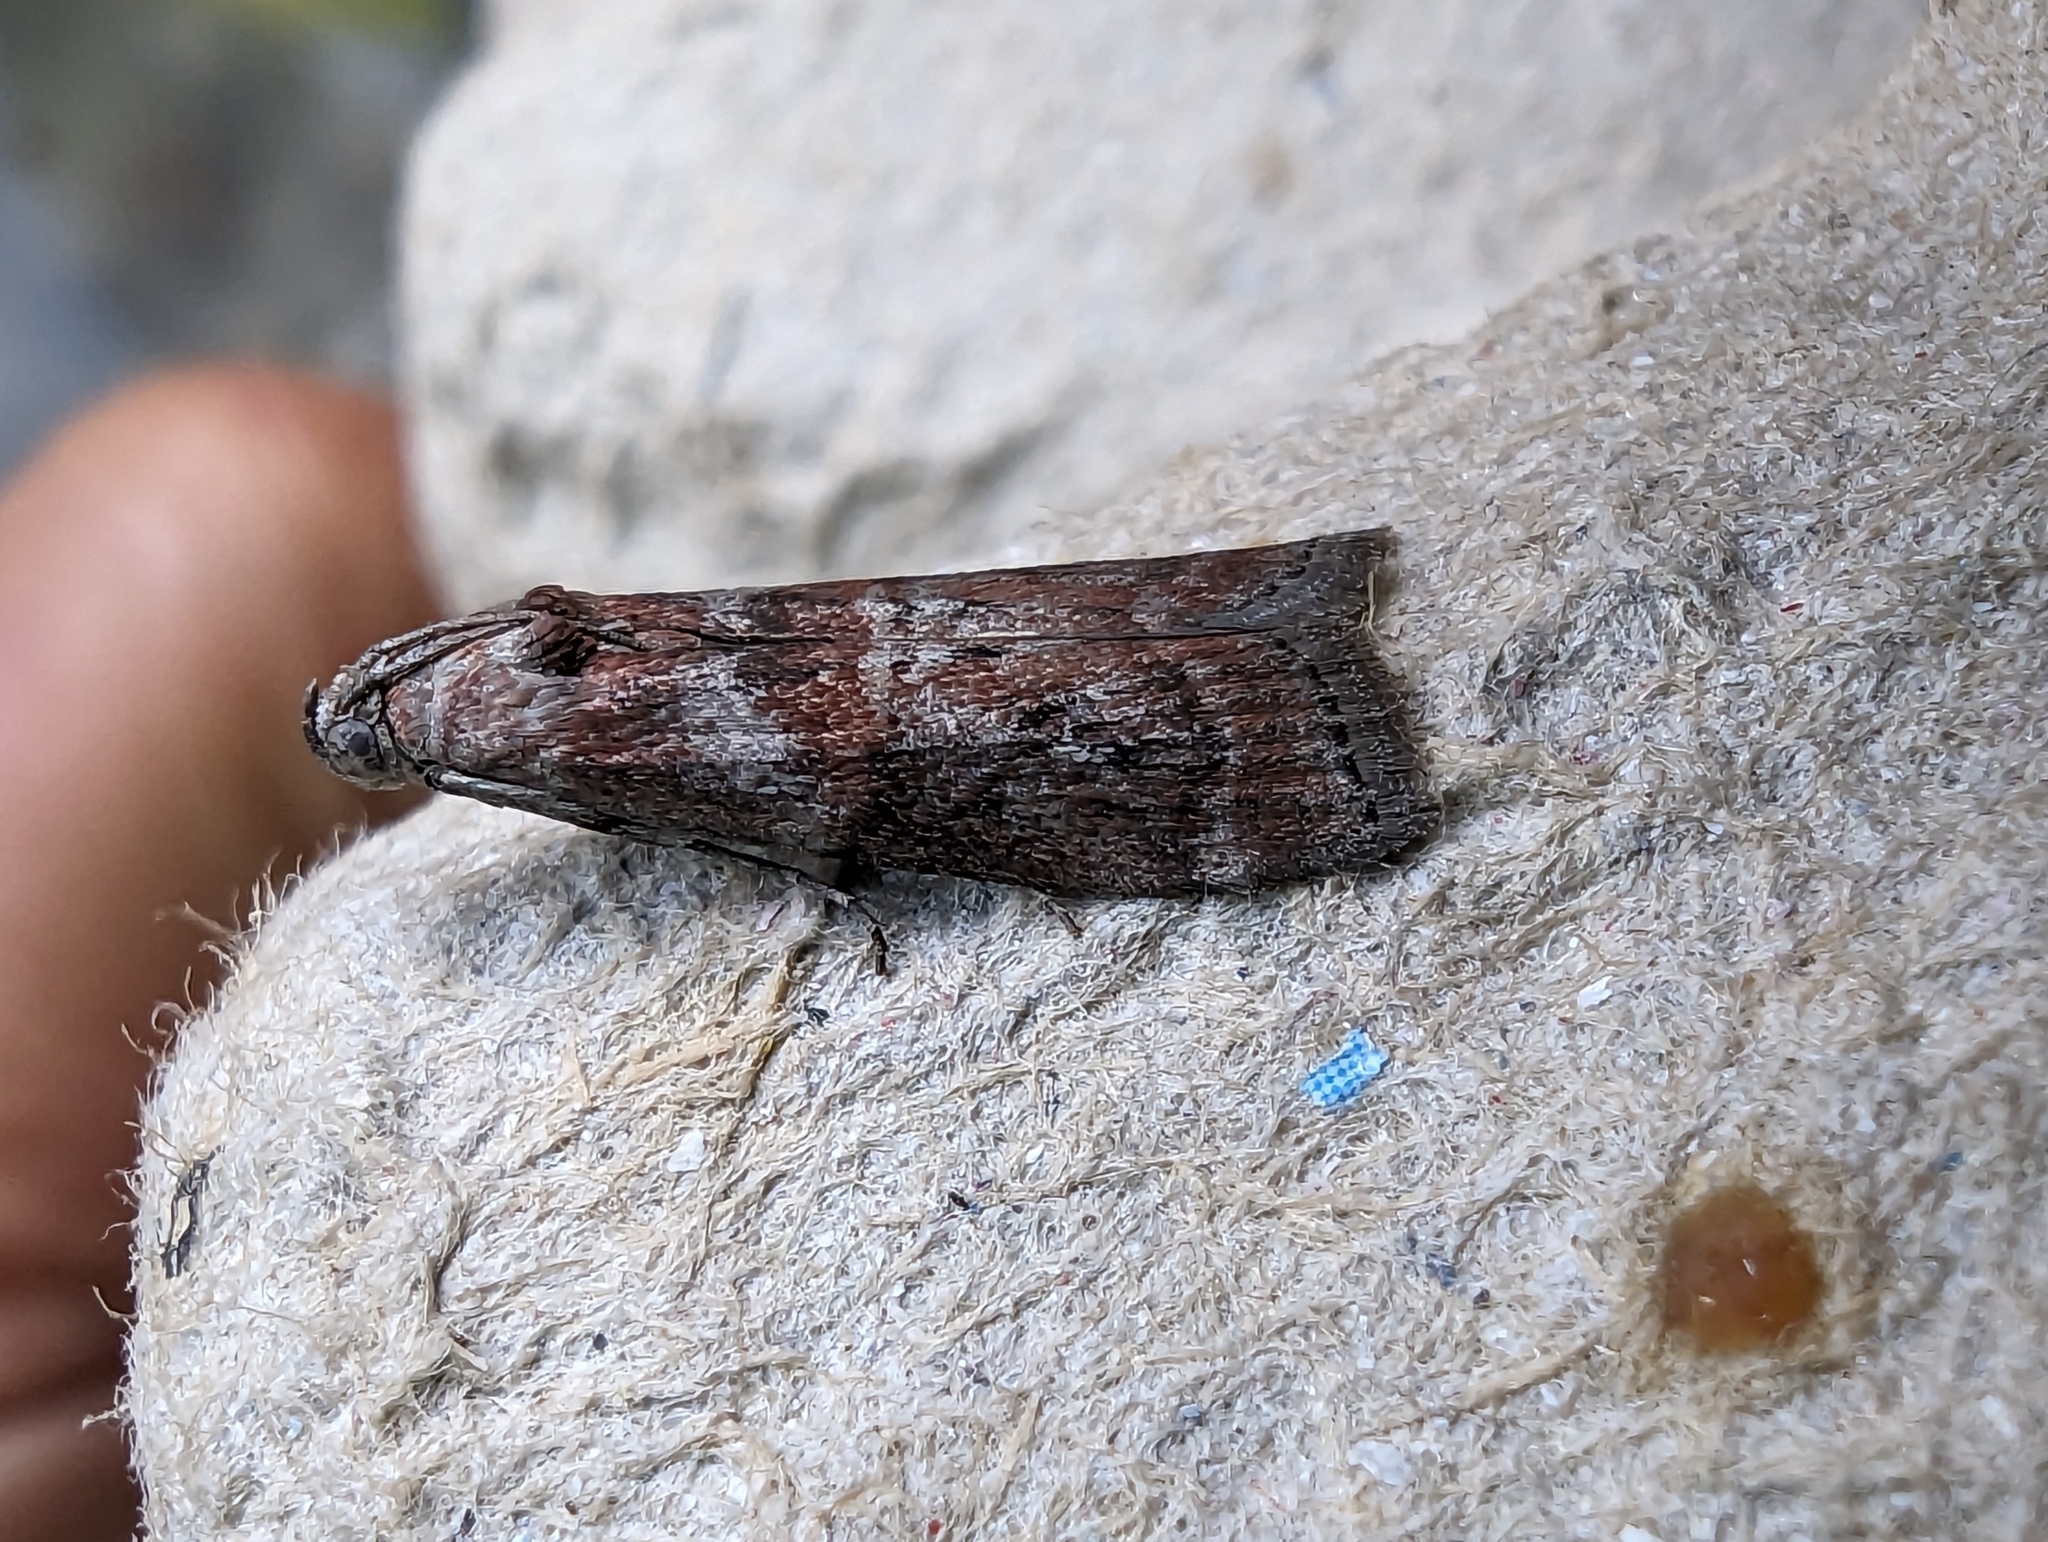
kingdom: Animalia
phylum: Arthropoda
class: Insecta
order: Lepidoptera
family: Pyralidae
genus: Phycita
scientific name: Phycita roborella
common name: Dotted oak knot-horn
